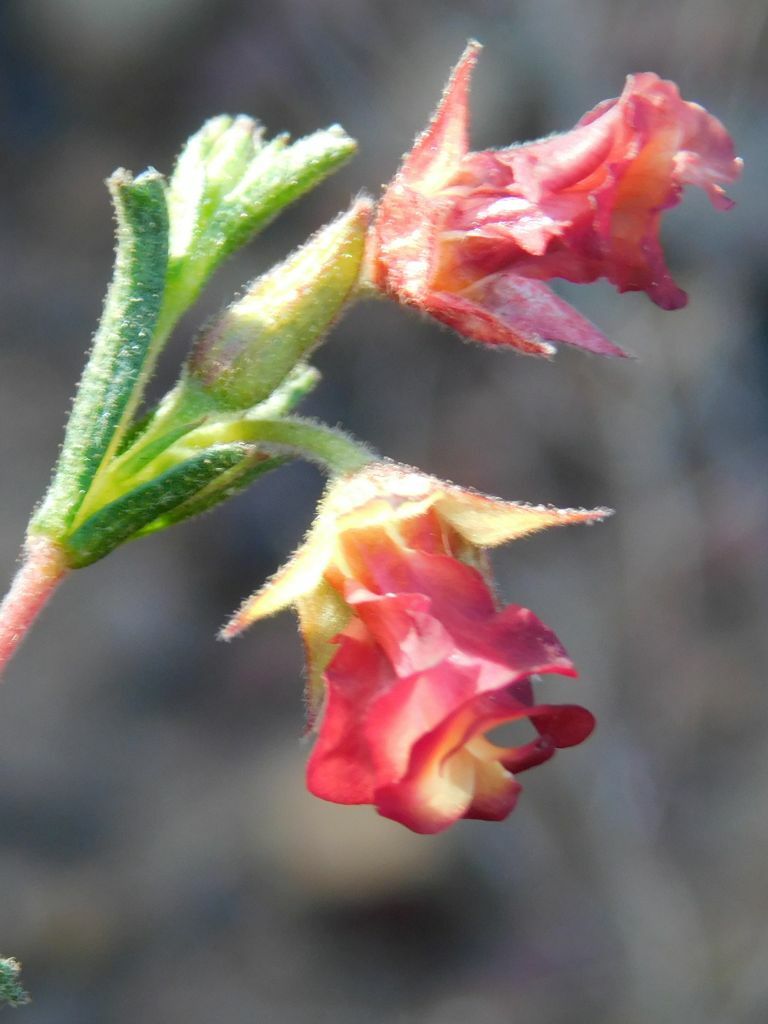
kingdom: Plantae
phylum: Tracheophyta
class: Magnoliopsida
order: Malvales
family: Malvaceae
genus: Hermannia
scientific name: Hermannia flammula
